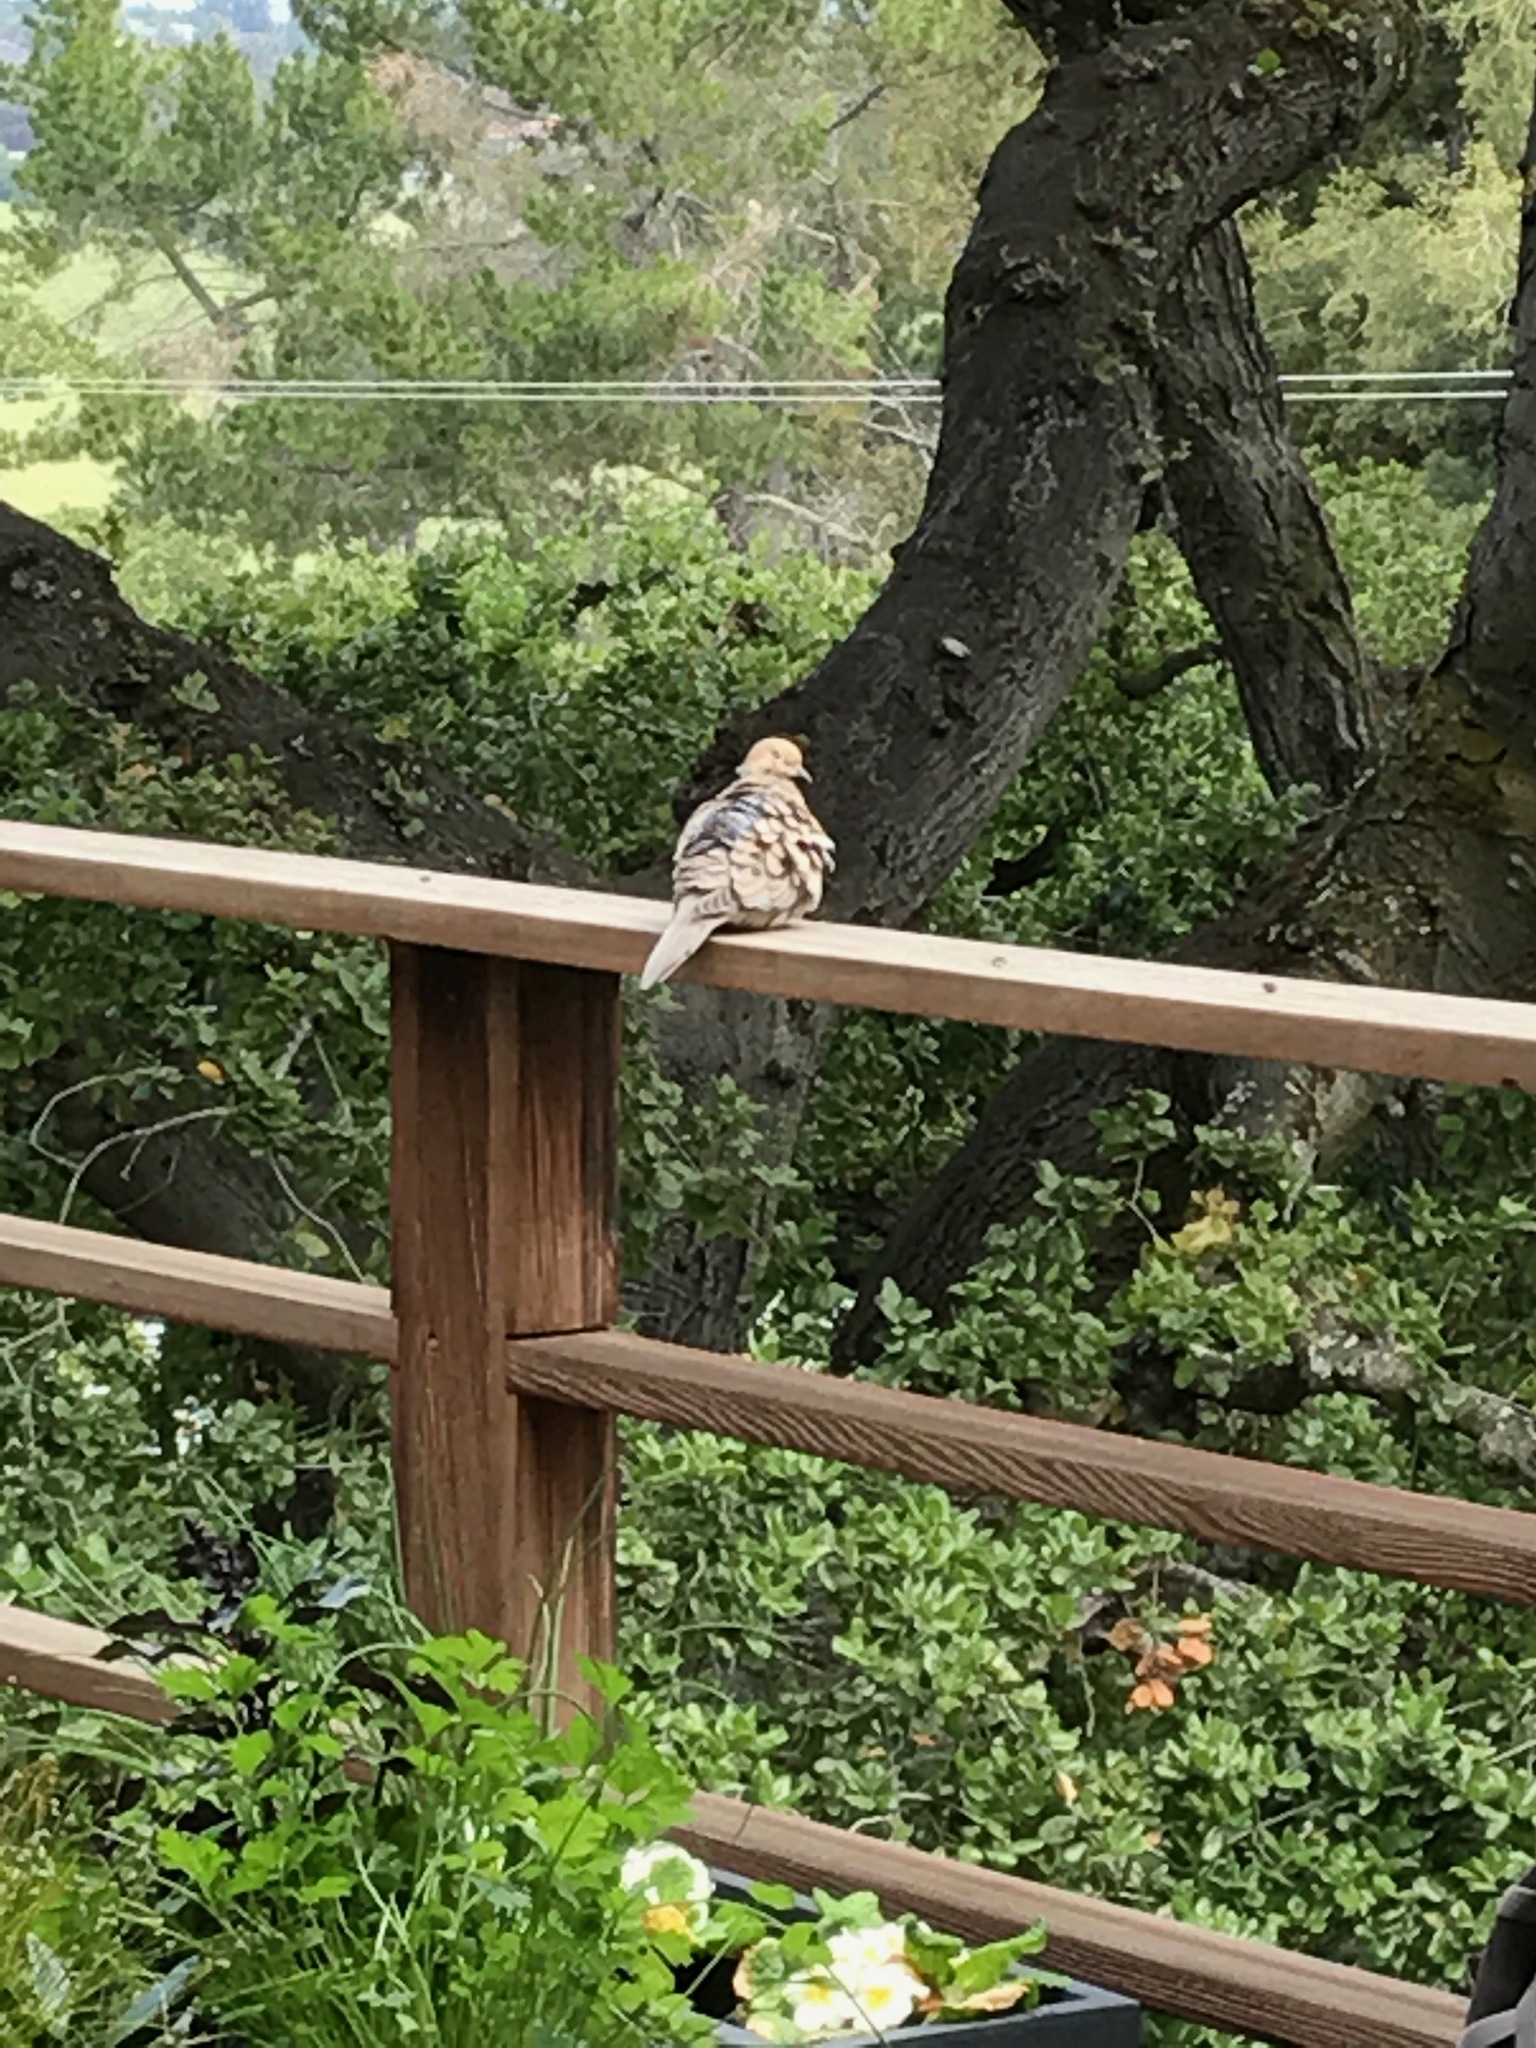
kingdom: Animalia
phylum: Chordata
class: Aves
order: Columbiformes
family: Columbidae
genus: Zenaida
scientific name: Zenaida macroura
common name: Mourning dove
